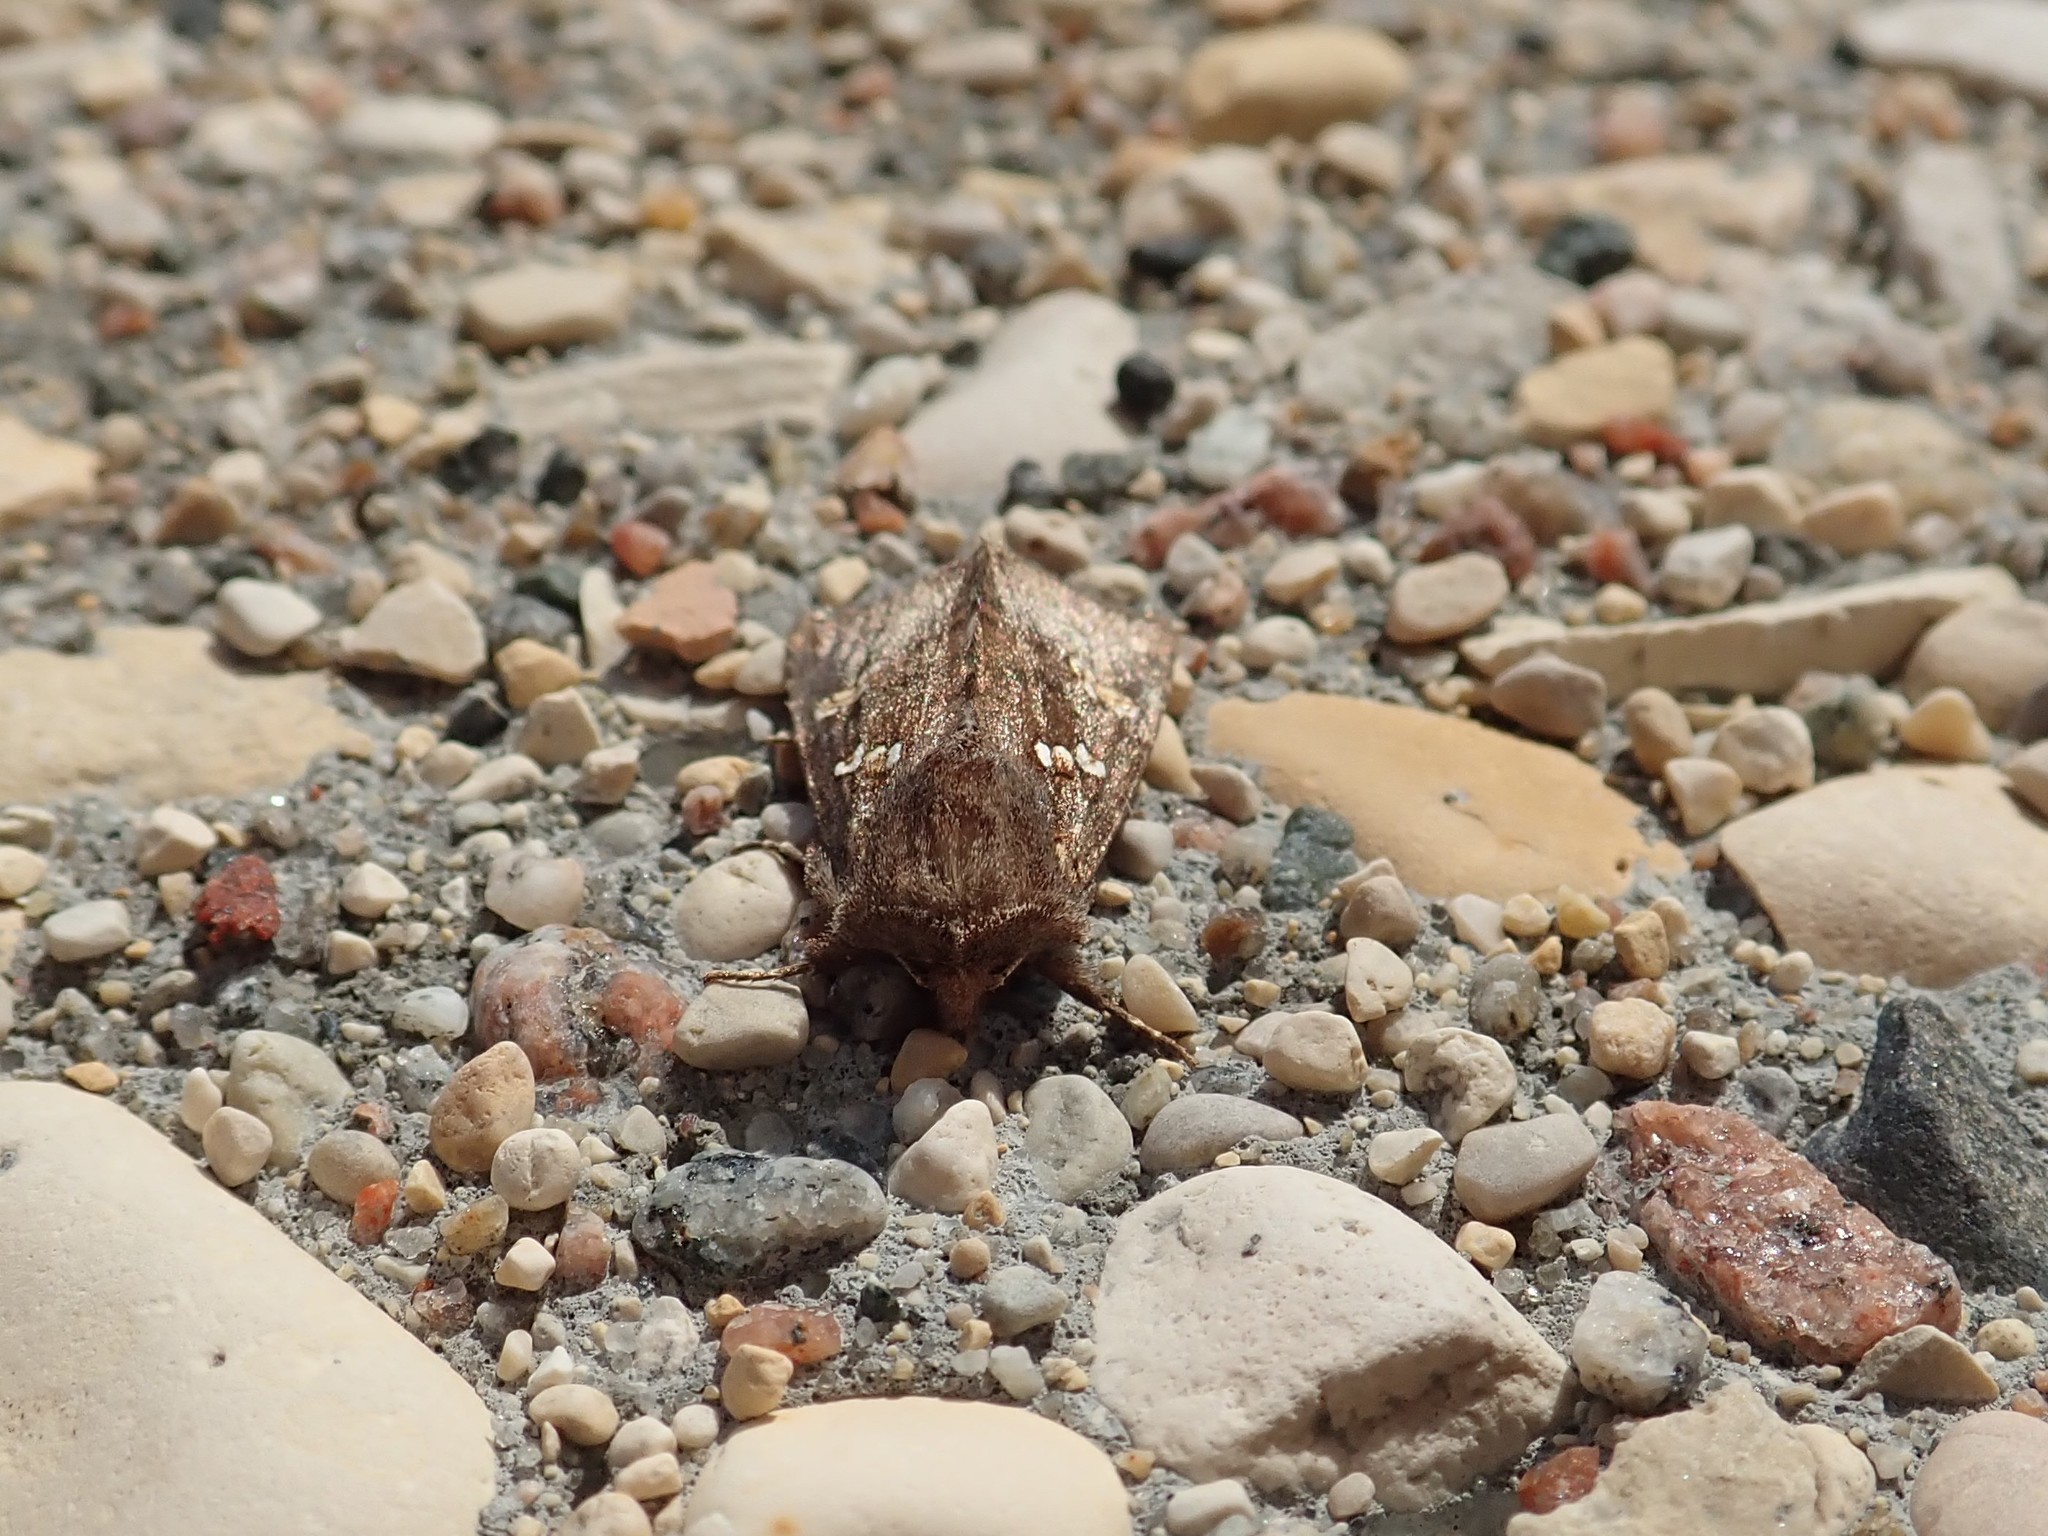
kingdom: Animalia
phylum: Arthropoda
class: Insecta
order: Lepidoptera
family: Noctuidae
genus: Papaipema
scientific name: Papaipema unimoda
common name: Meadow rue borer moth
